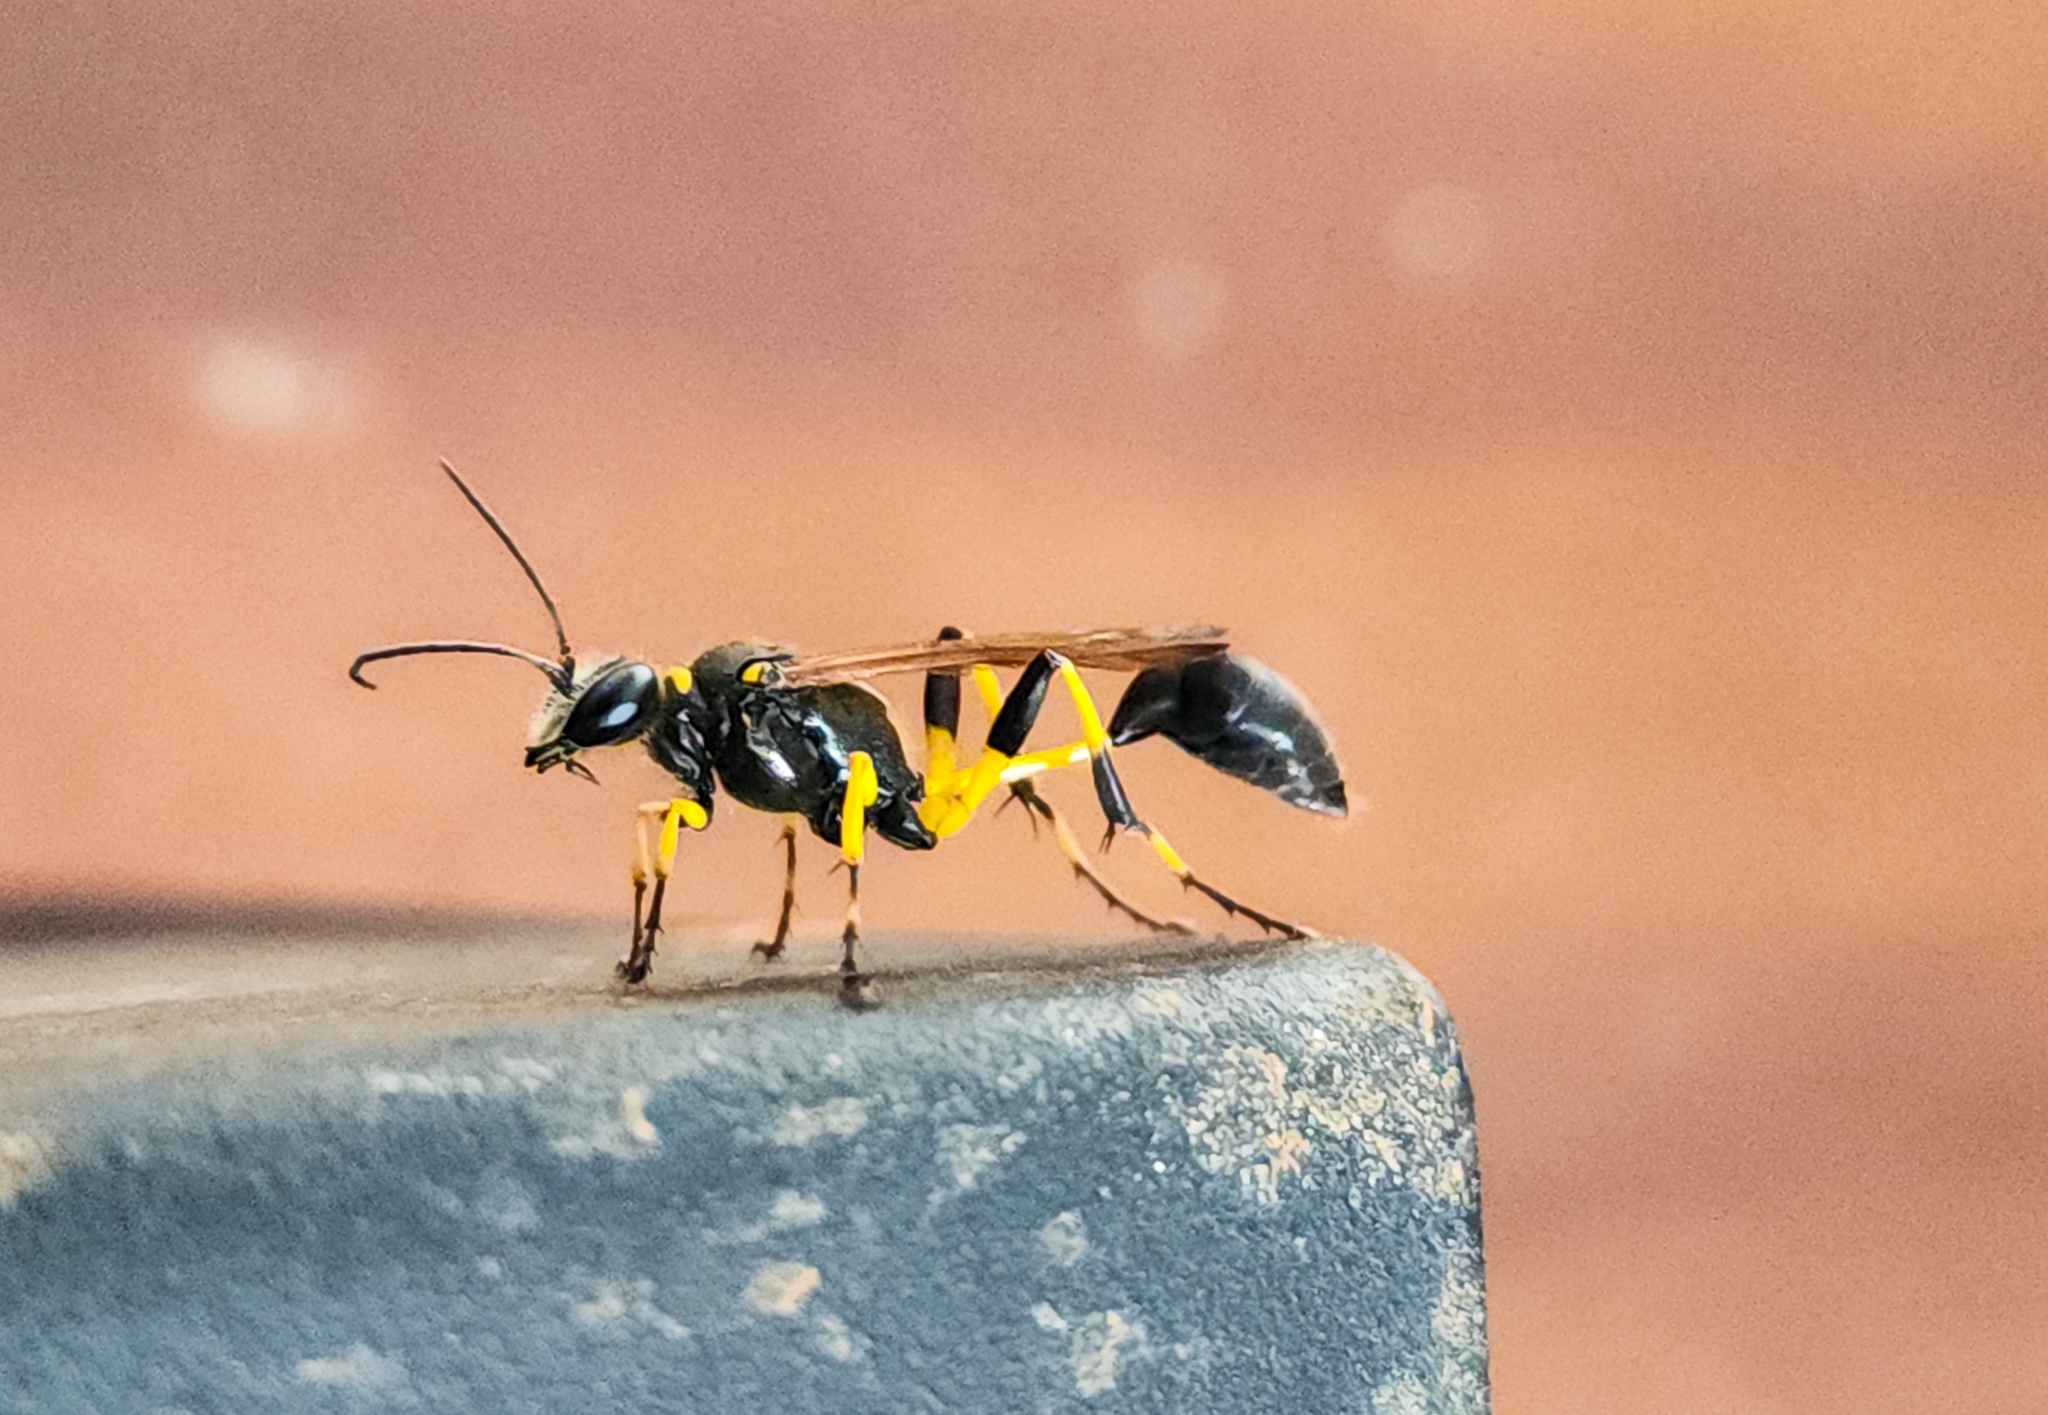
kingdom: Animalia
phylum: Arthropoda
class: Insecta
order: Hymenoptera
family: Sphecidae
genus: Sceliphron
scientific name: Sceliphron madraspatanum
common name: Mud dauber
